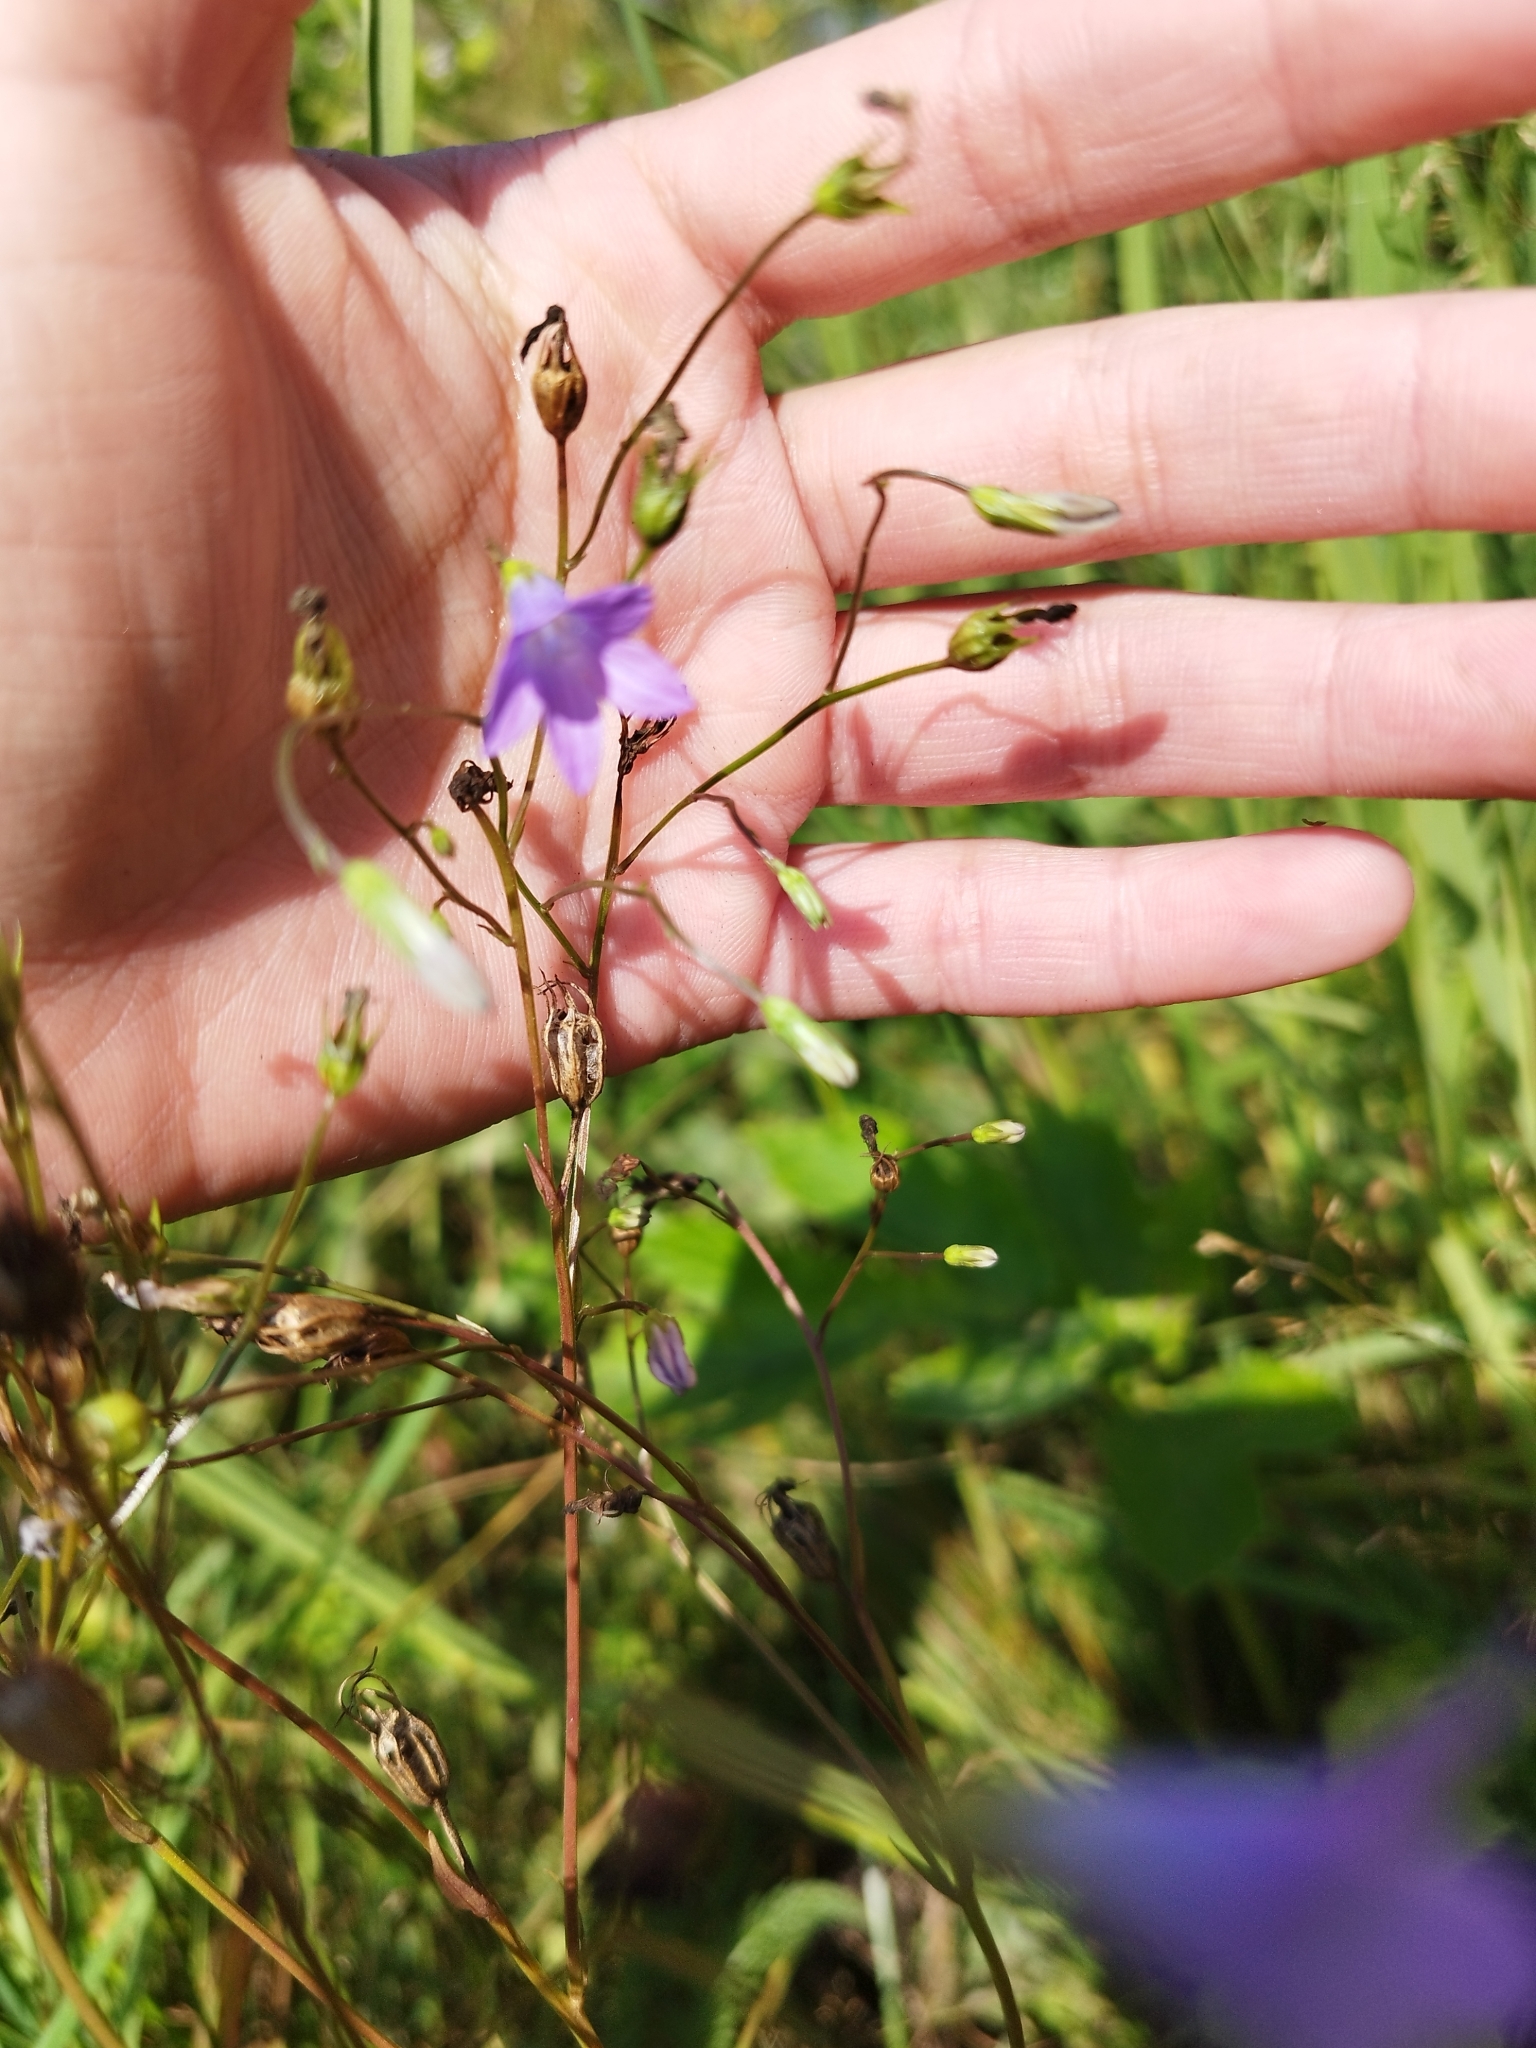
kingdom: Plantae
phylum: Tracheophyta
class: Magnoliopsida
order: Asterales
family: Campanulaceae
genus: Campanula
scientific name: Campanula patula
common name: Spreading bellflower
